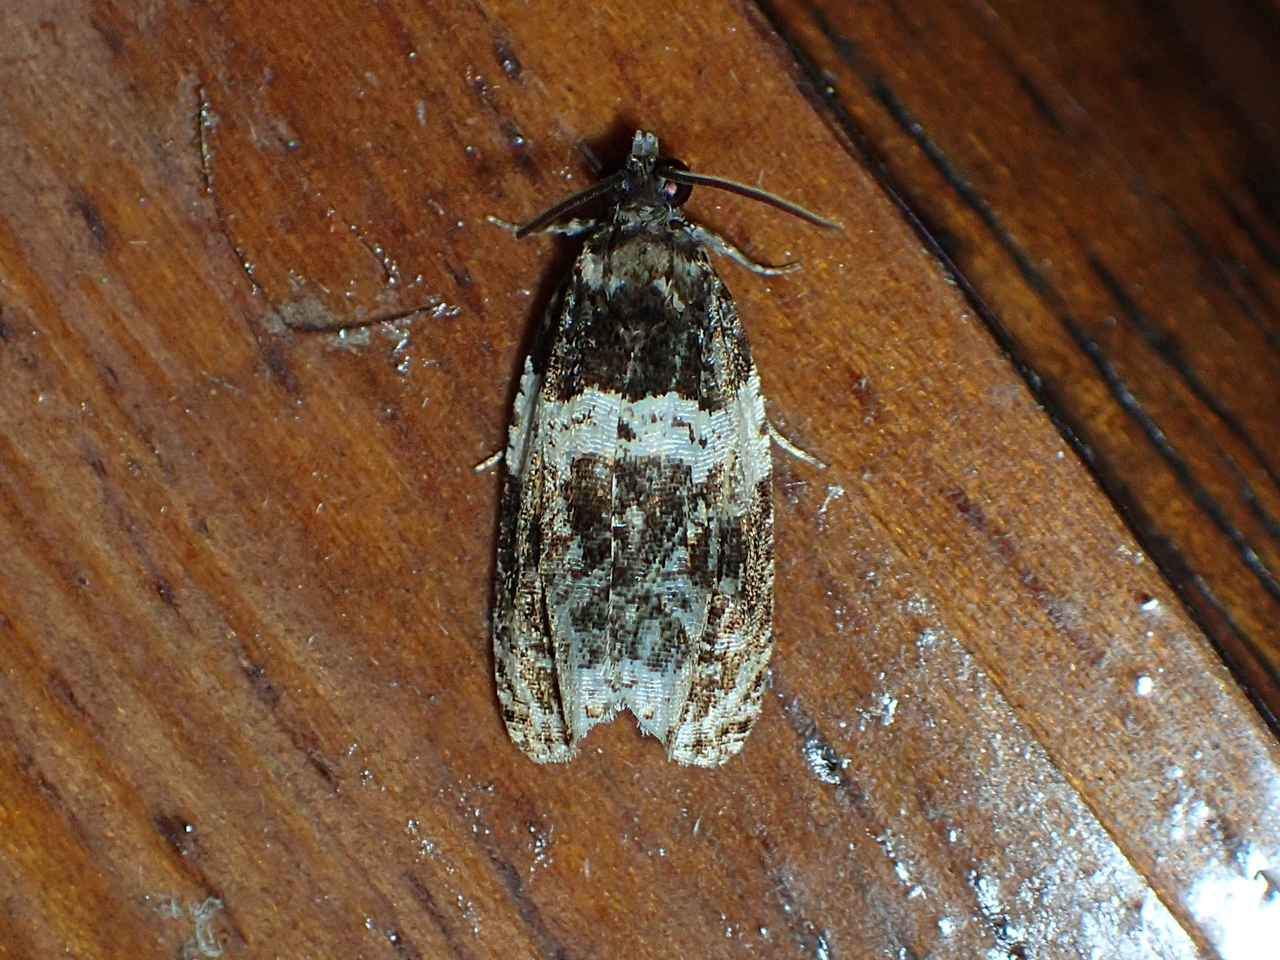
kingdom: Animalia
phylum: Arthropoda
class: Insecta
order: Lepidoptera
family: Tortricidae
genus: Olethreutes
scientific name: Olethreutes fasciatana
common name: Banded olethreutes moth
